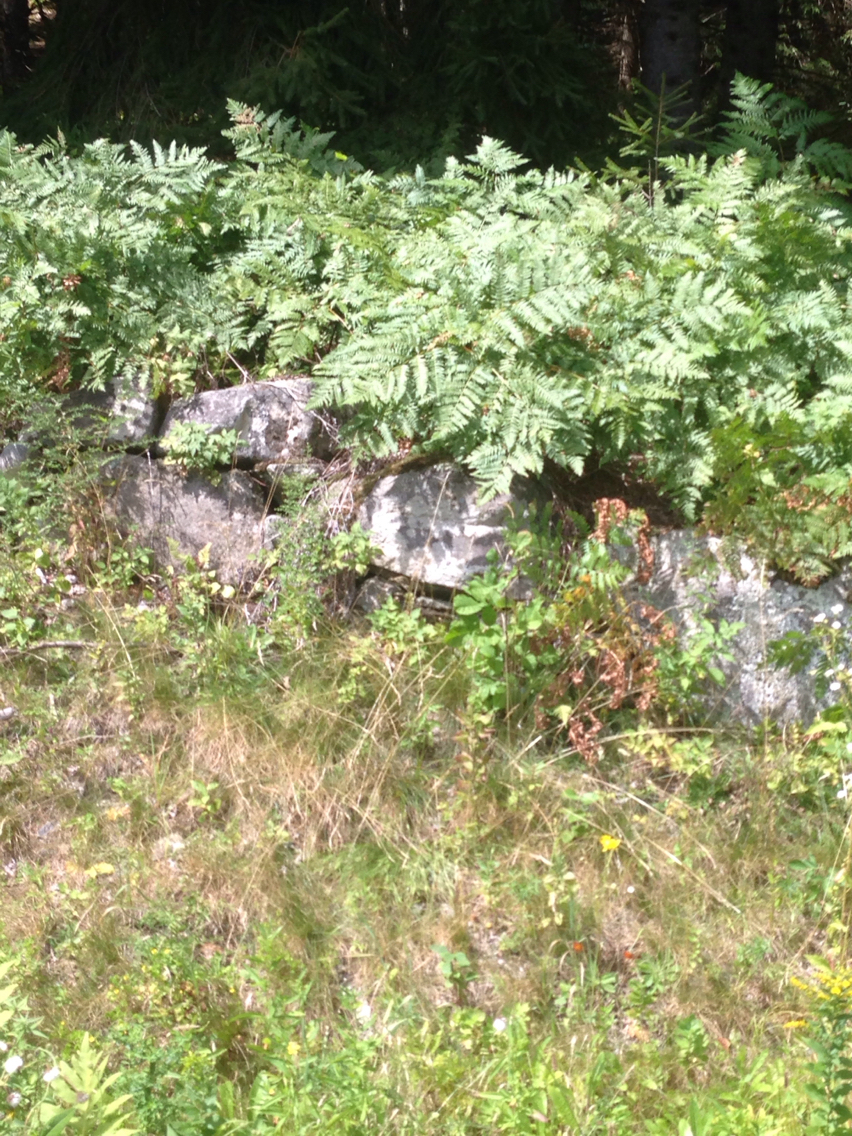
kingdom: Plantae
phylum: Tracheophyta
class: Polypodiopsida
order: Polypodiales
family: Dennstaedtiaceae
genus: Pteridium
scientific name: Pteridium aquilinum
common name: Bracken
